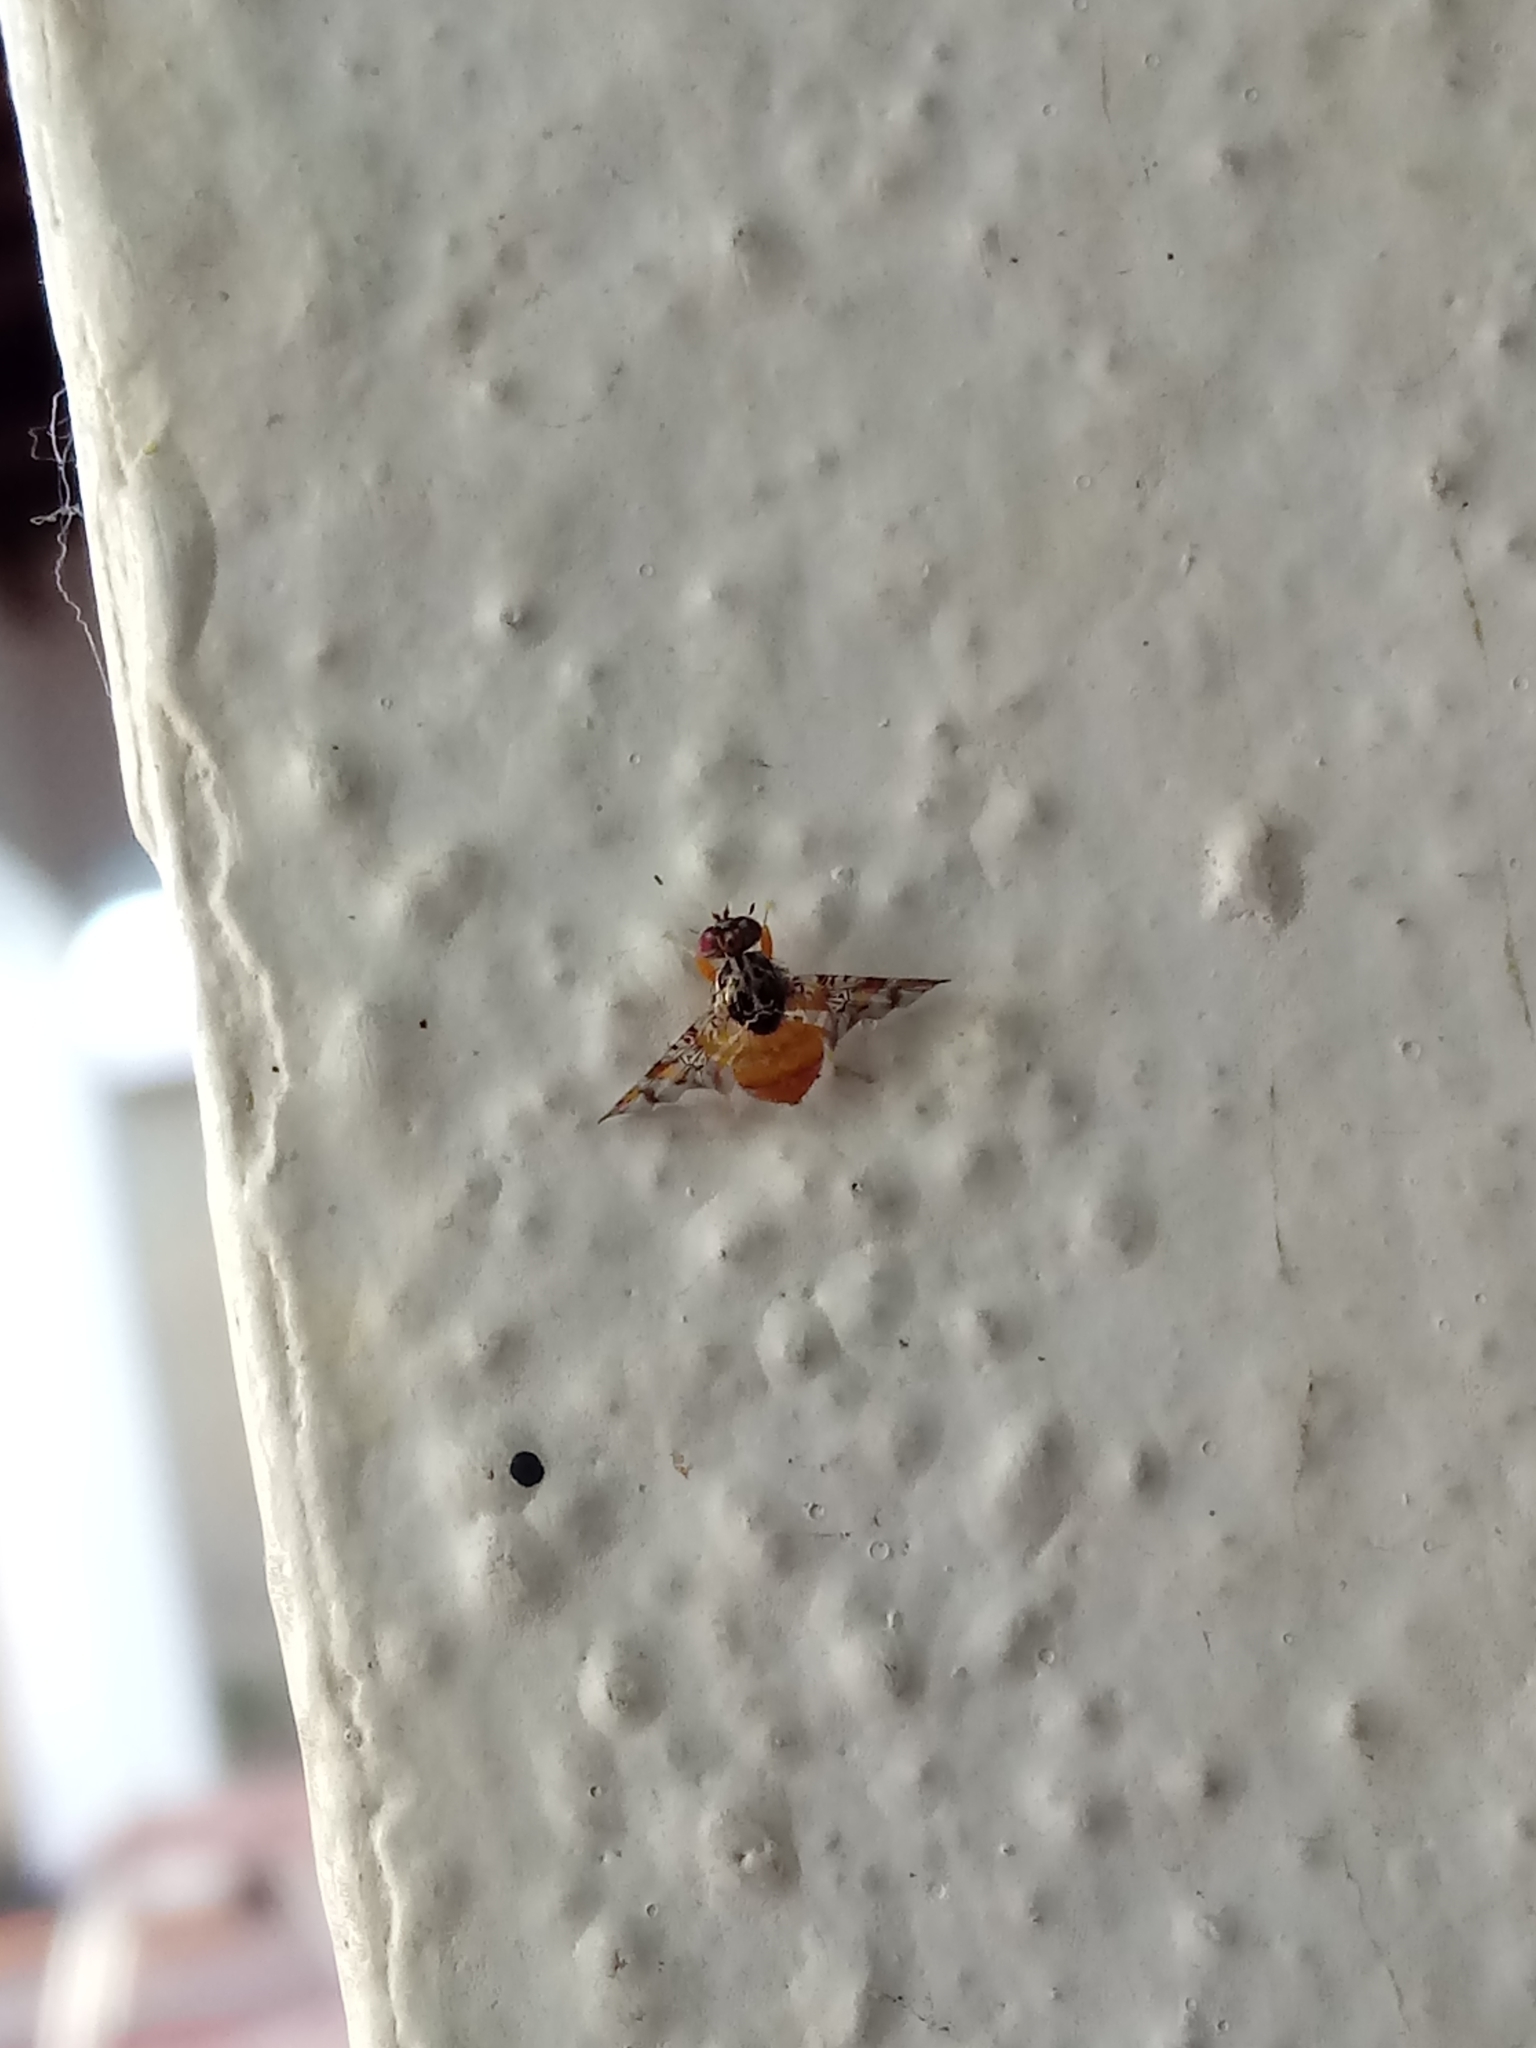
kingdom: Animalia
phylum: Arthropoda
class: Insecta
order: Diptera
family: Tephritidae
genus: Ceratitis
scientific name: Ceratitis capitata
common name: Mediterranean fruit fly
